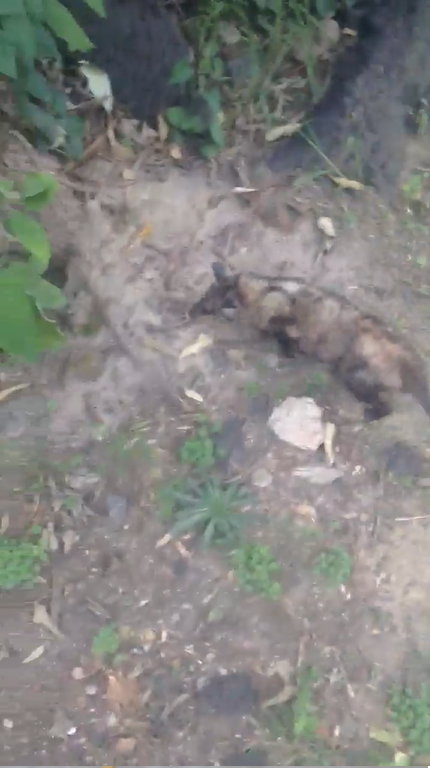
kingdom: Animalia
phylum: Chordata
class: Mammalia
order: Didelphimorphia
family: Didelphidae
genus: Didelphis
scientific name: Didelphis virginiana
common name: Virginia opossum
